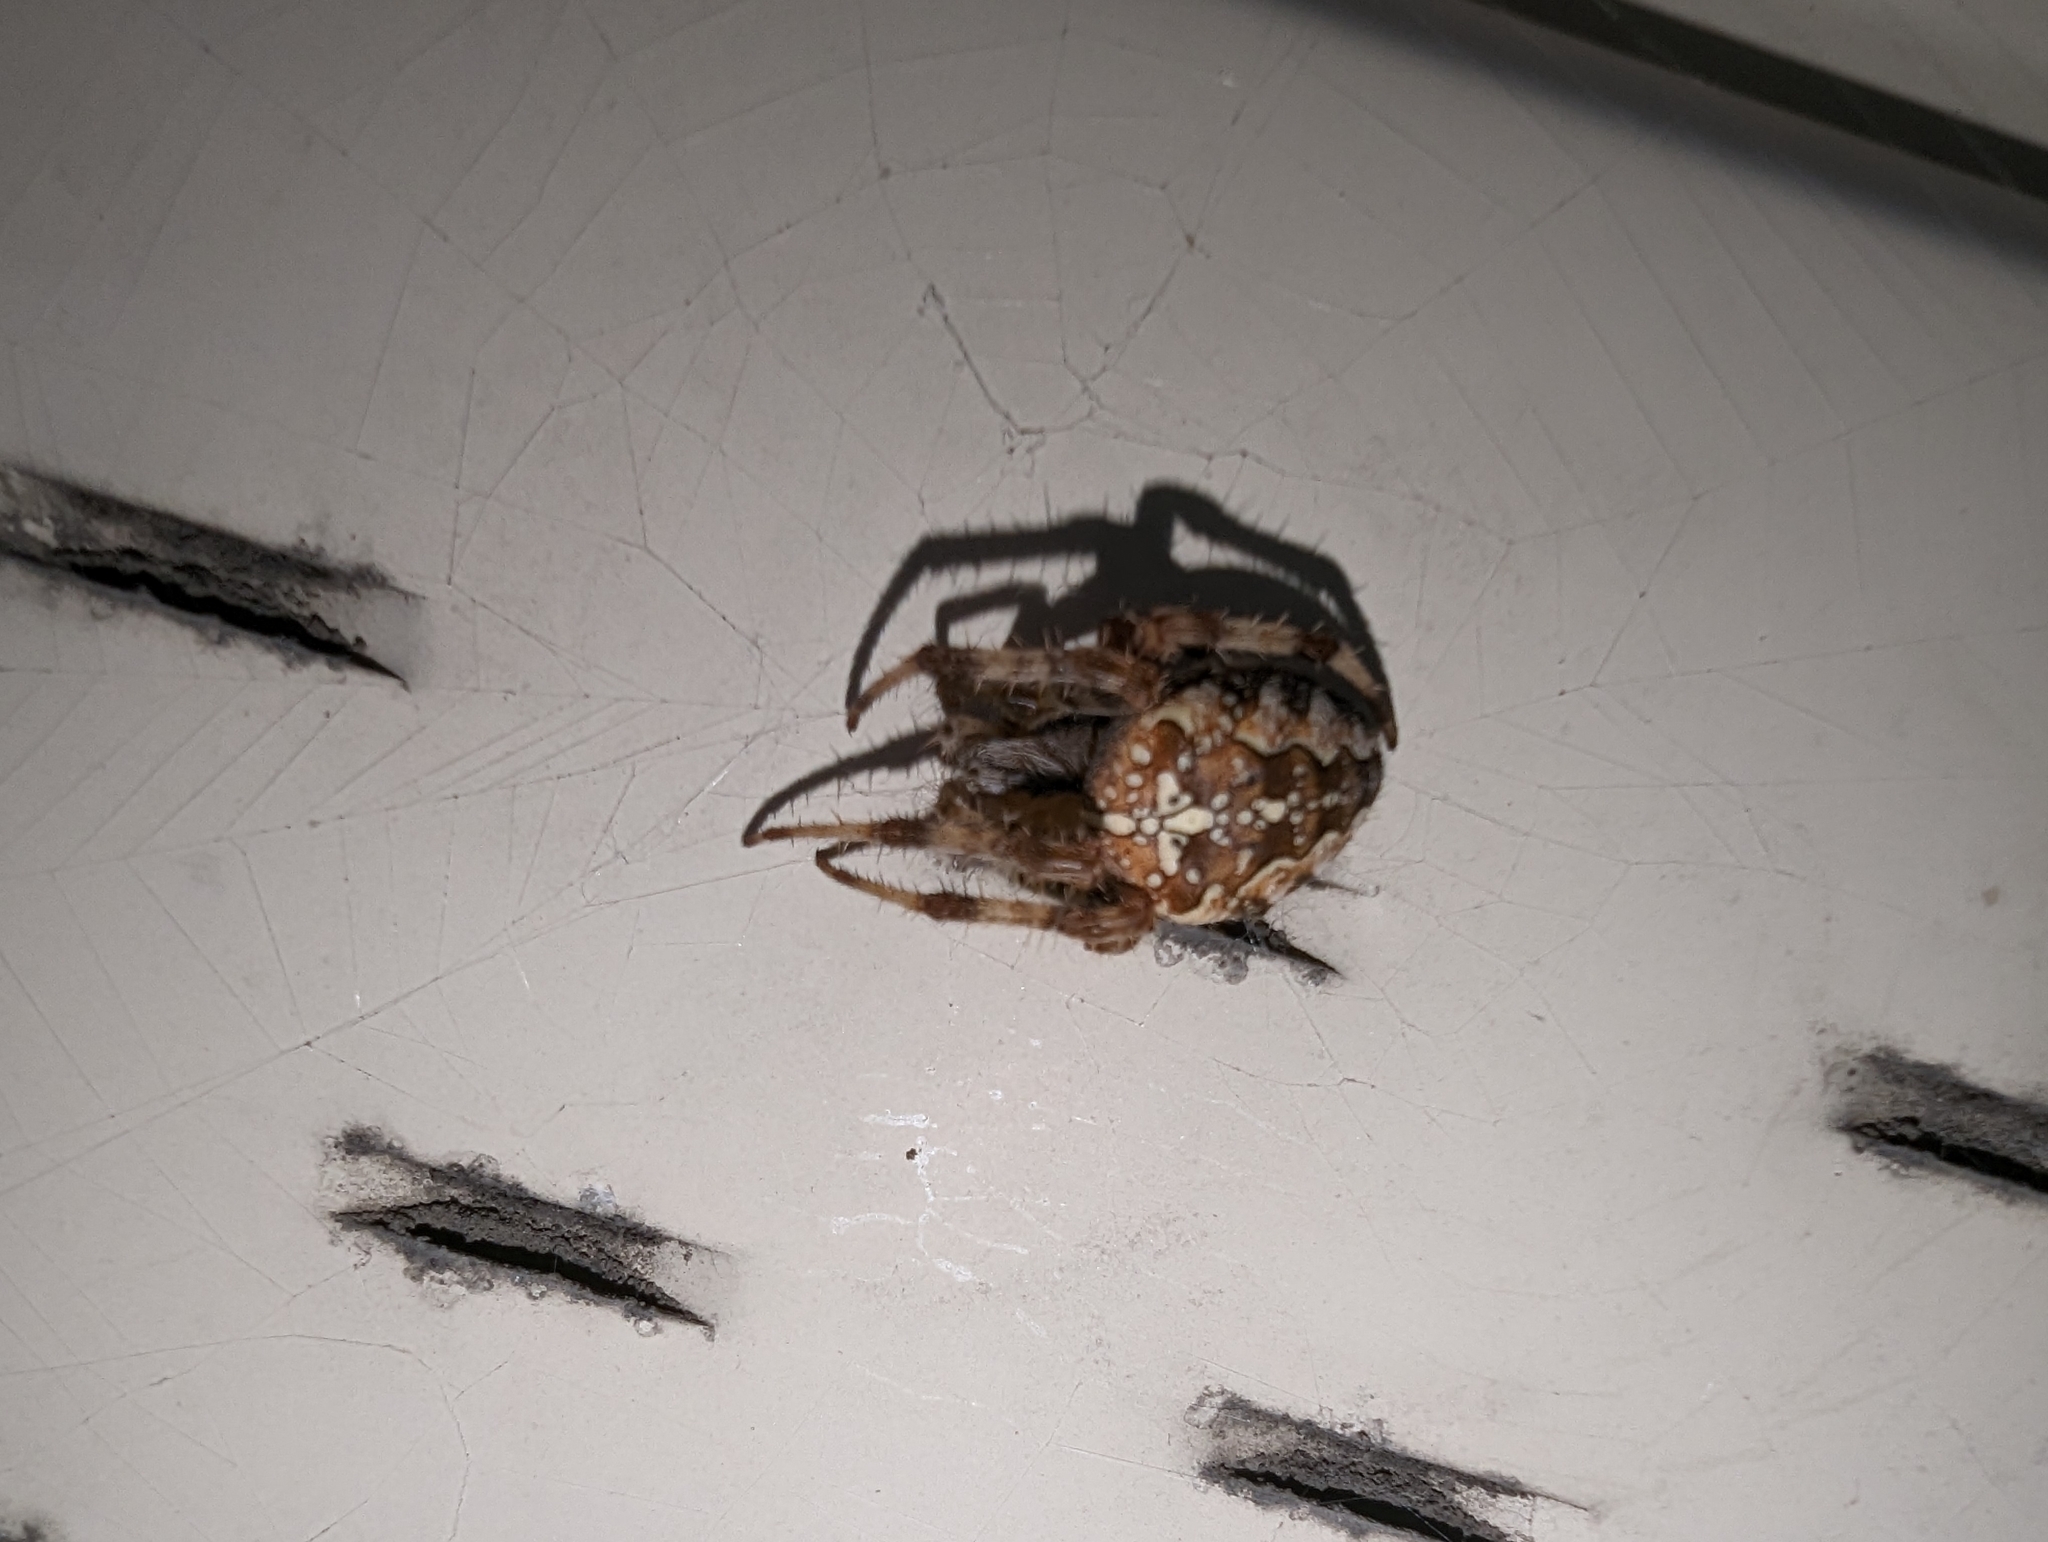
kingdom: Animalia
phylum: Arthropoda
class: Arachnida
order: Araneae
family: Araneidae
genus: Araneus
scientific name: Araneus diadematus
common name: Cross orbweaver
